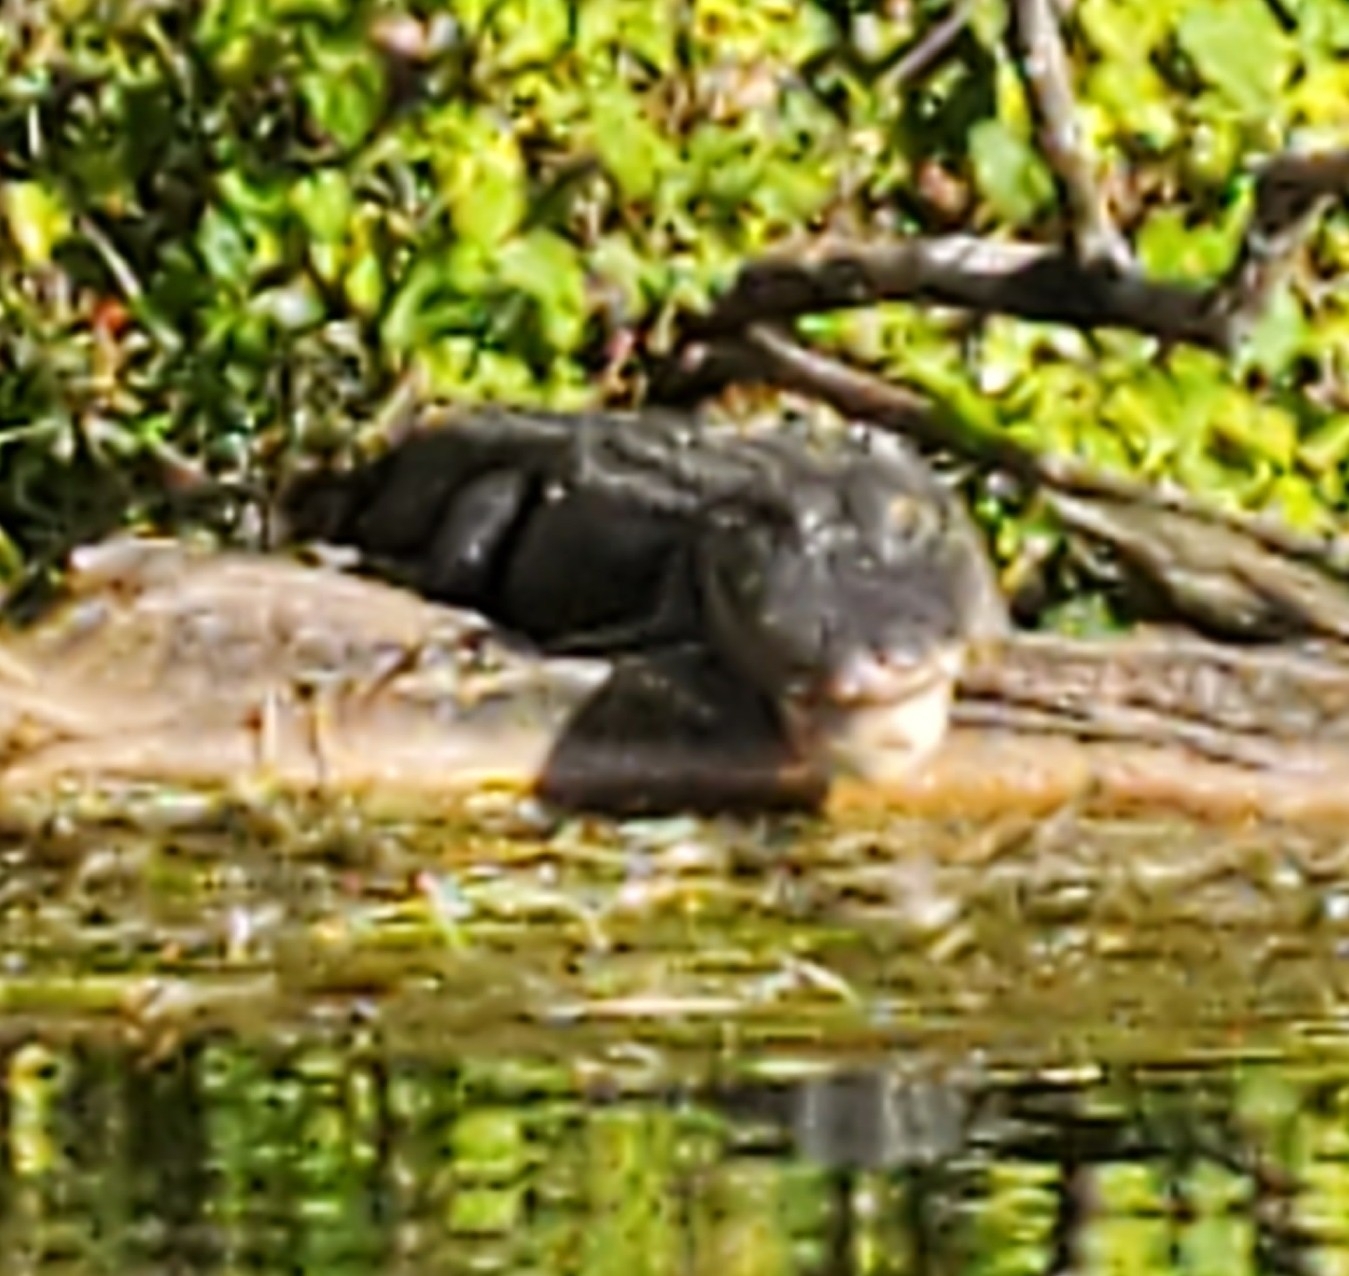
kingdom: Animalia
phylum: Chordata
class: Crocodylia
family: Alligatoridae
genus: Alligator
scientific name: Alligator mississippiensis
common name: American alligator
